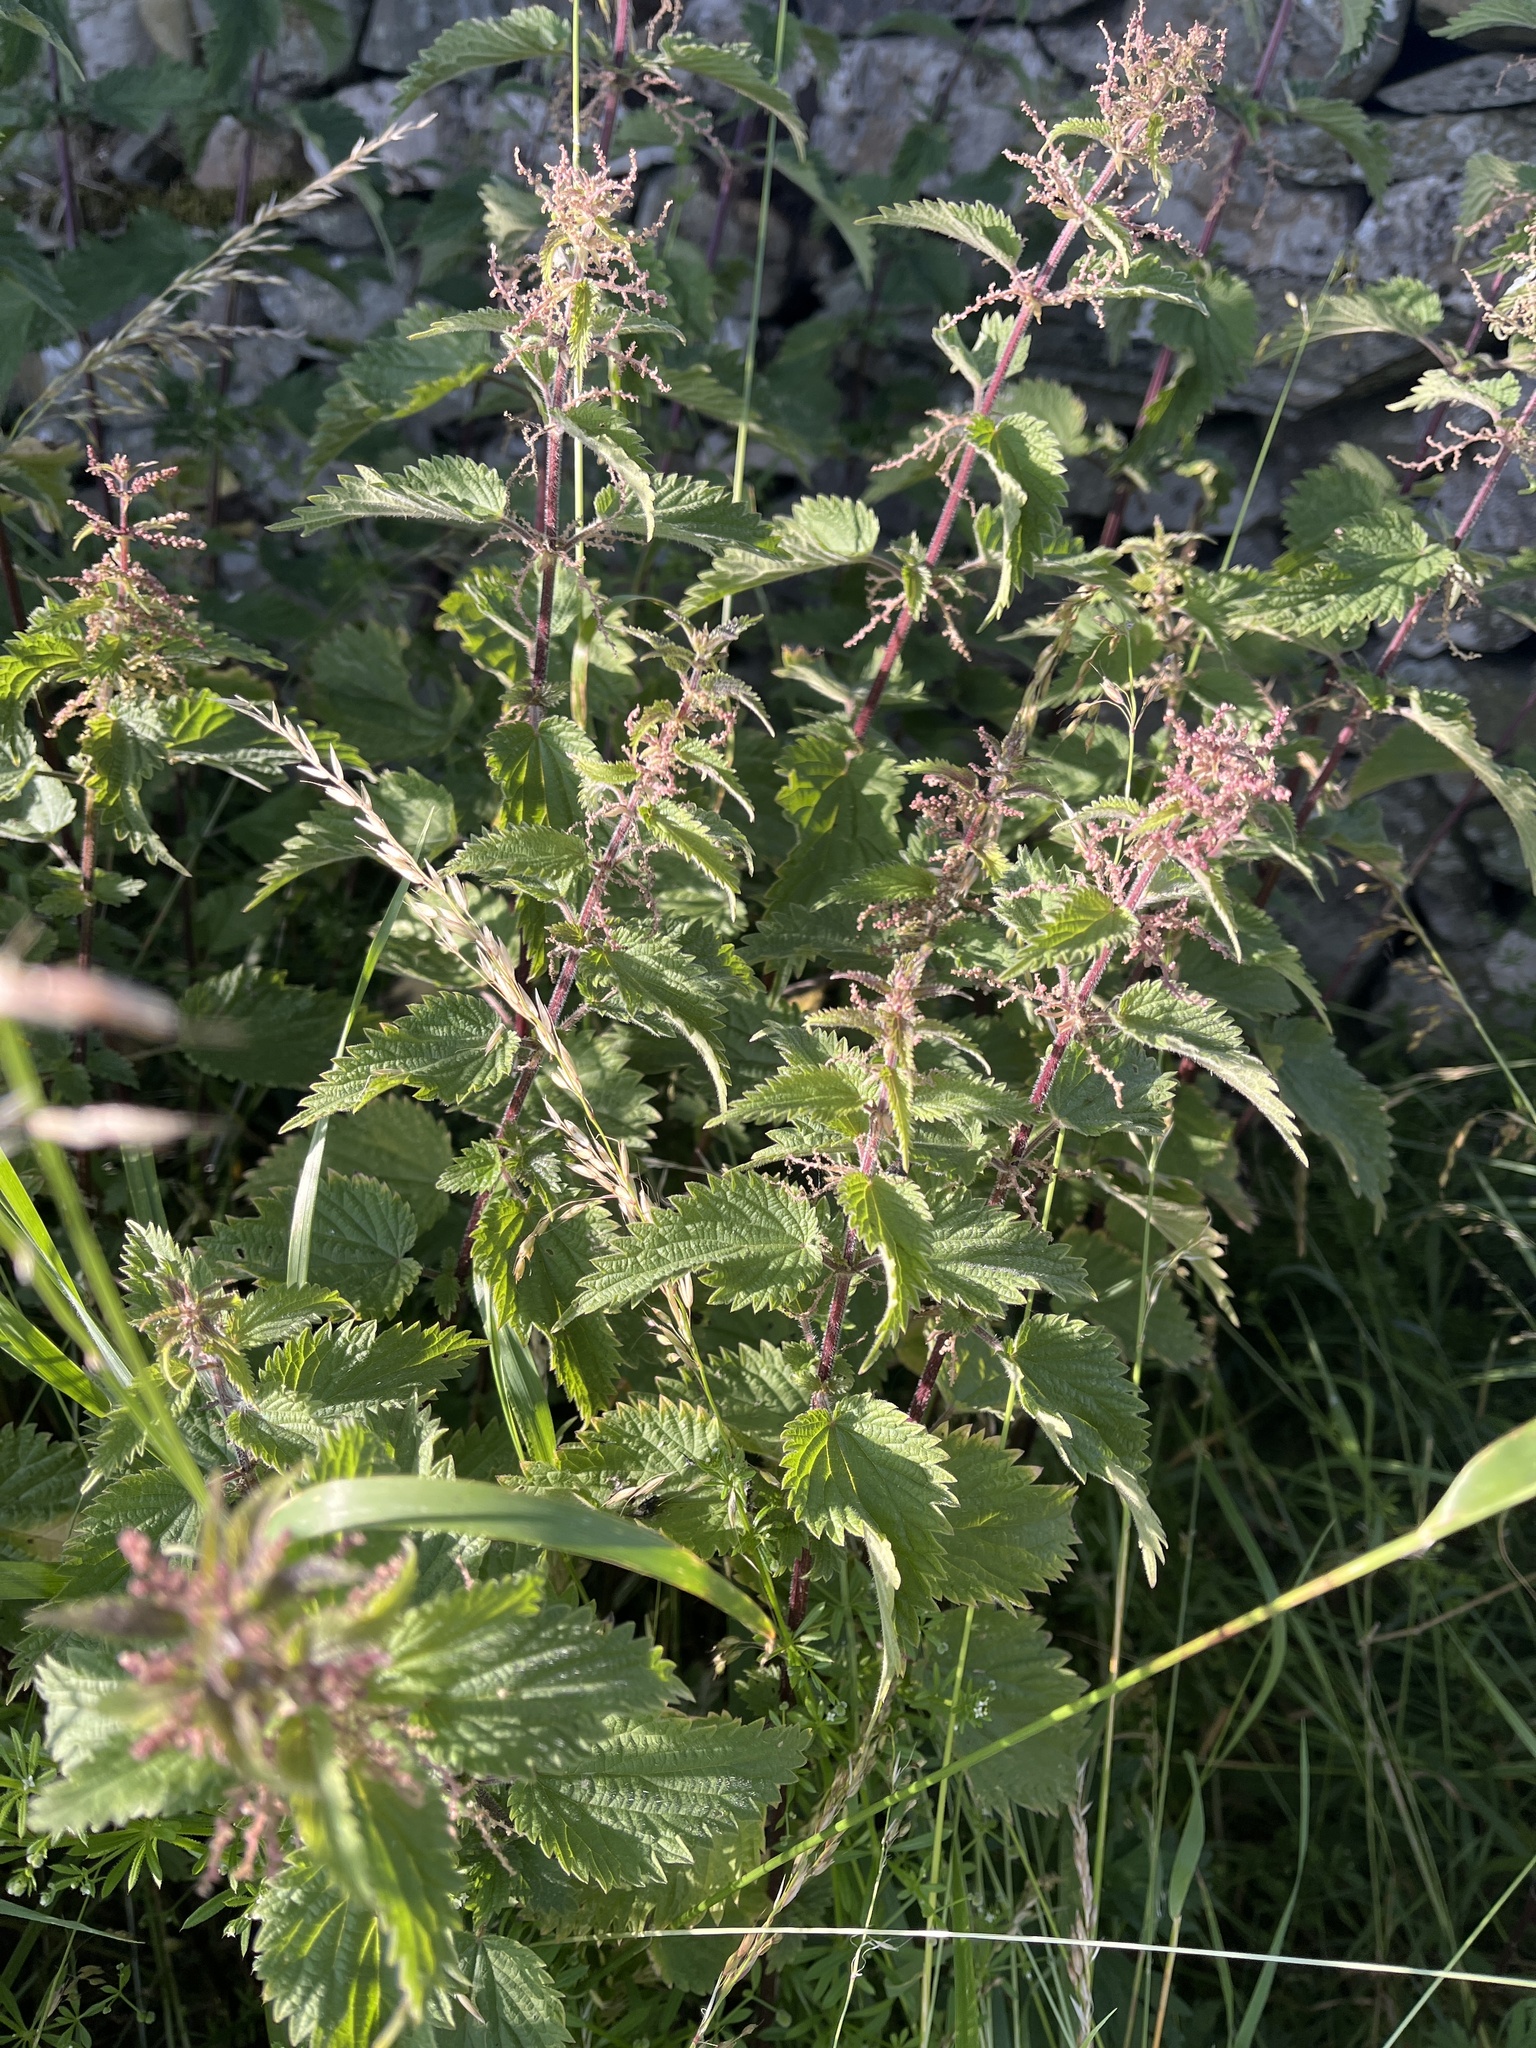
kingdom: Plantae
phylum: Tracheophyta
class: Magnoliopsida
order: Rosales
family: Urticaceae
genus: Urtica
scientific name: Urtica dioica
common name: Common nettle
